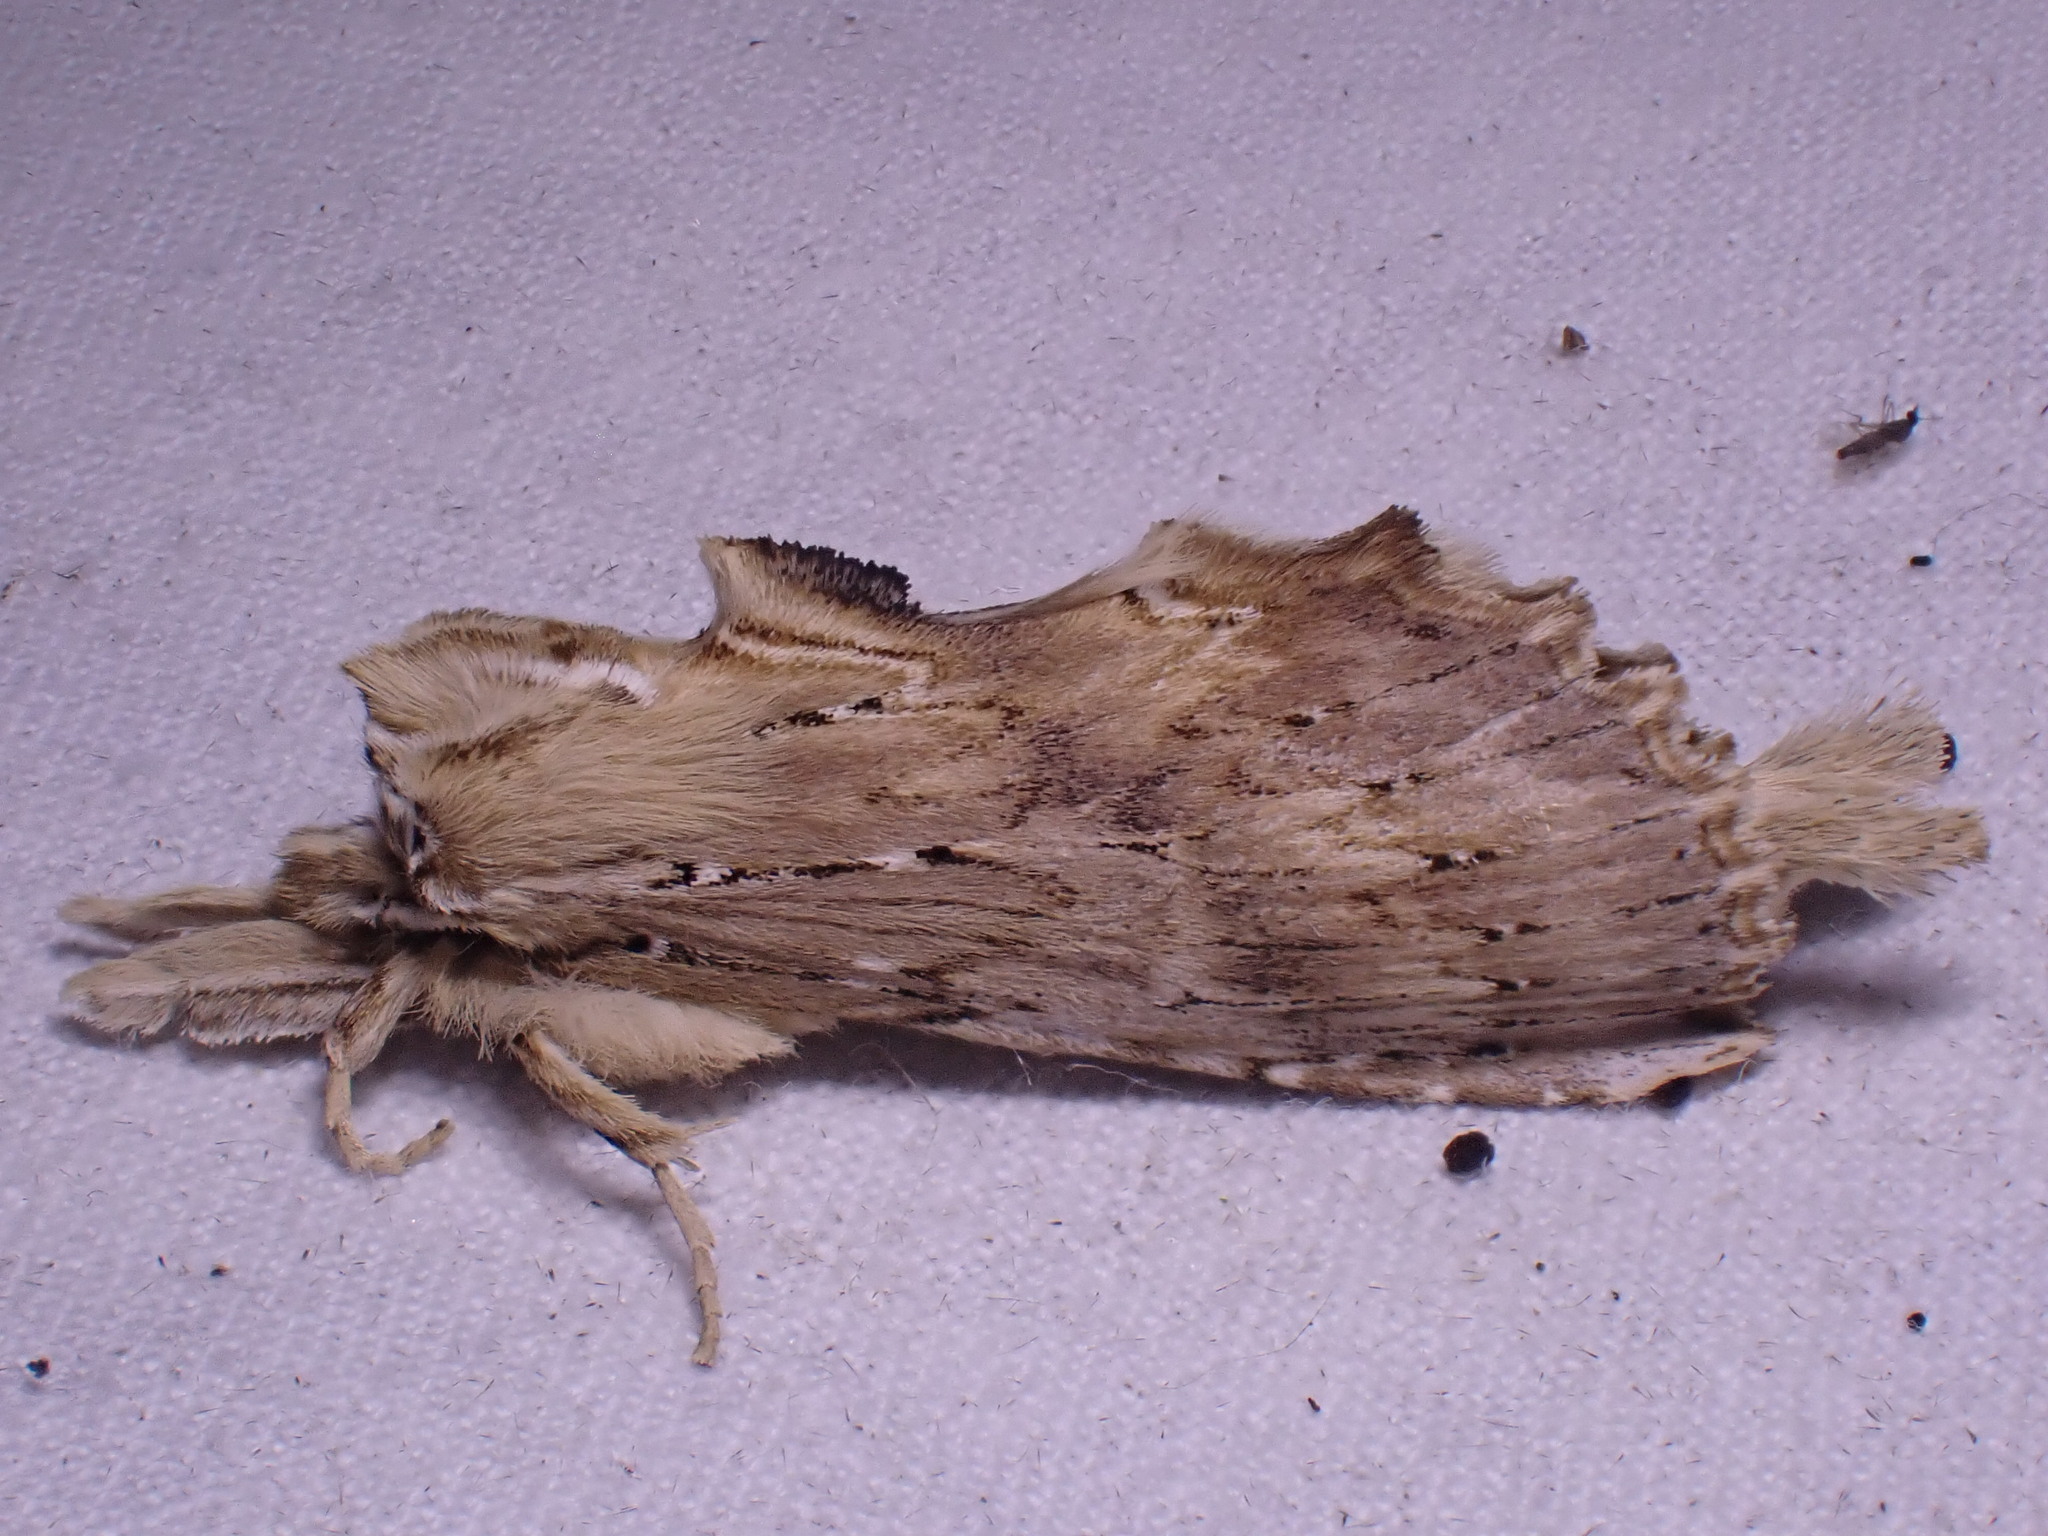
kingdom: Animalia
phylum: Arthropoda
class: Insecta
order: Lepidoptera
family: Notodontidae
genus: Pterostoma
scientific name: Pterostoma palpina
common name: Pale prominent
